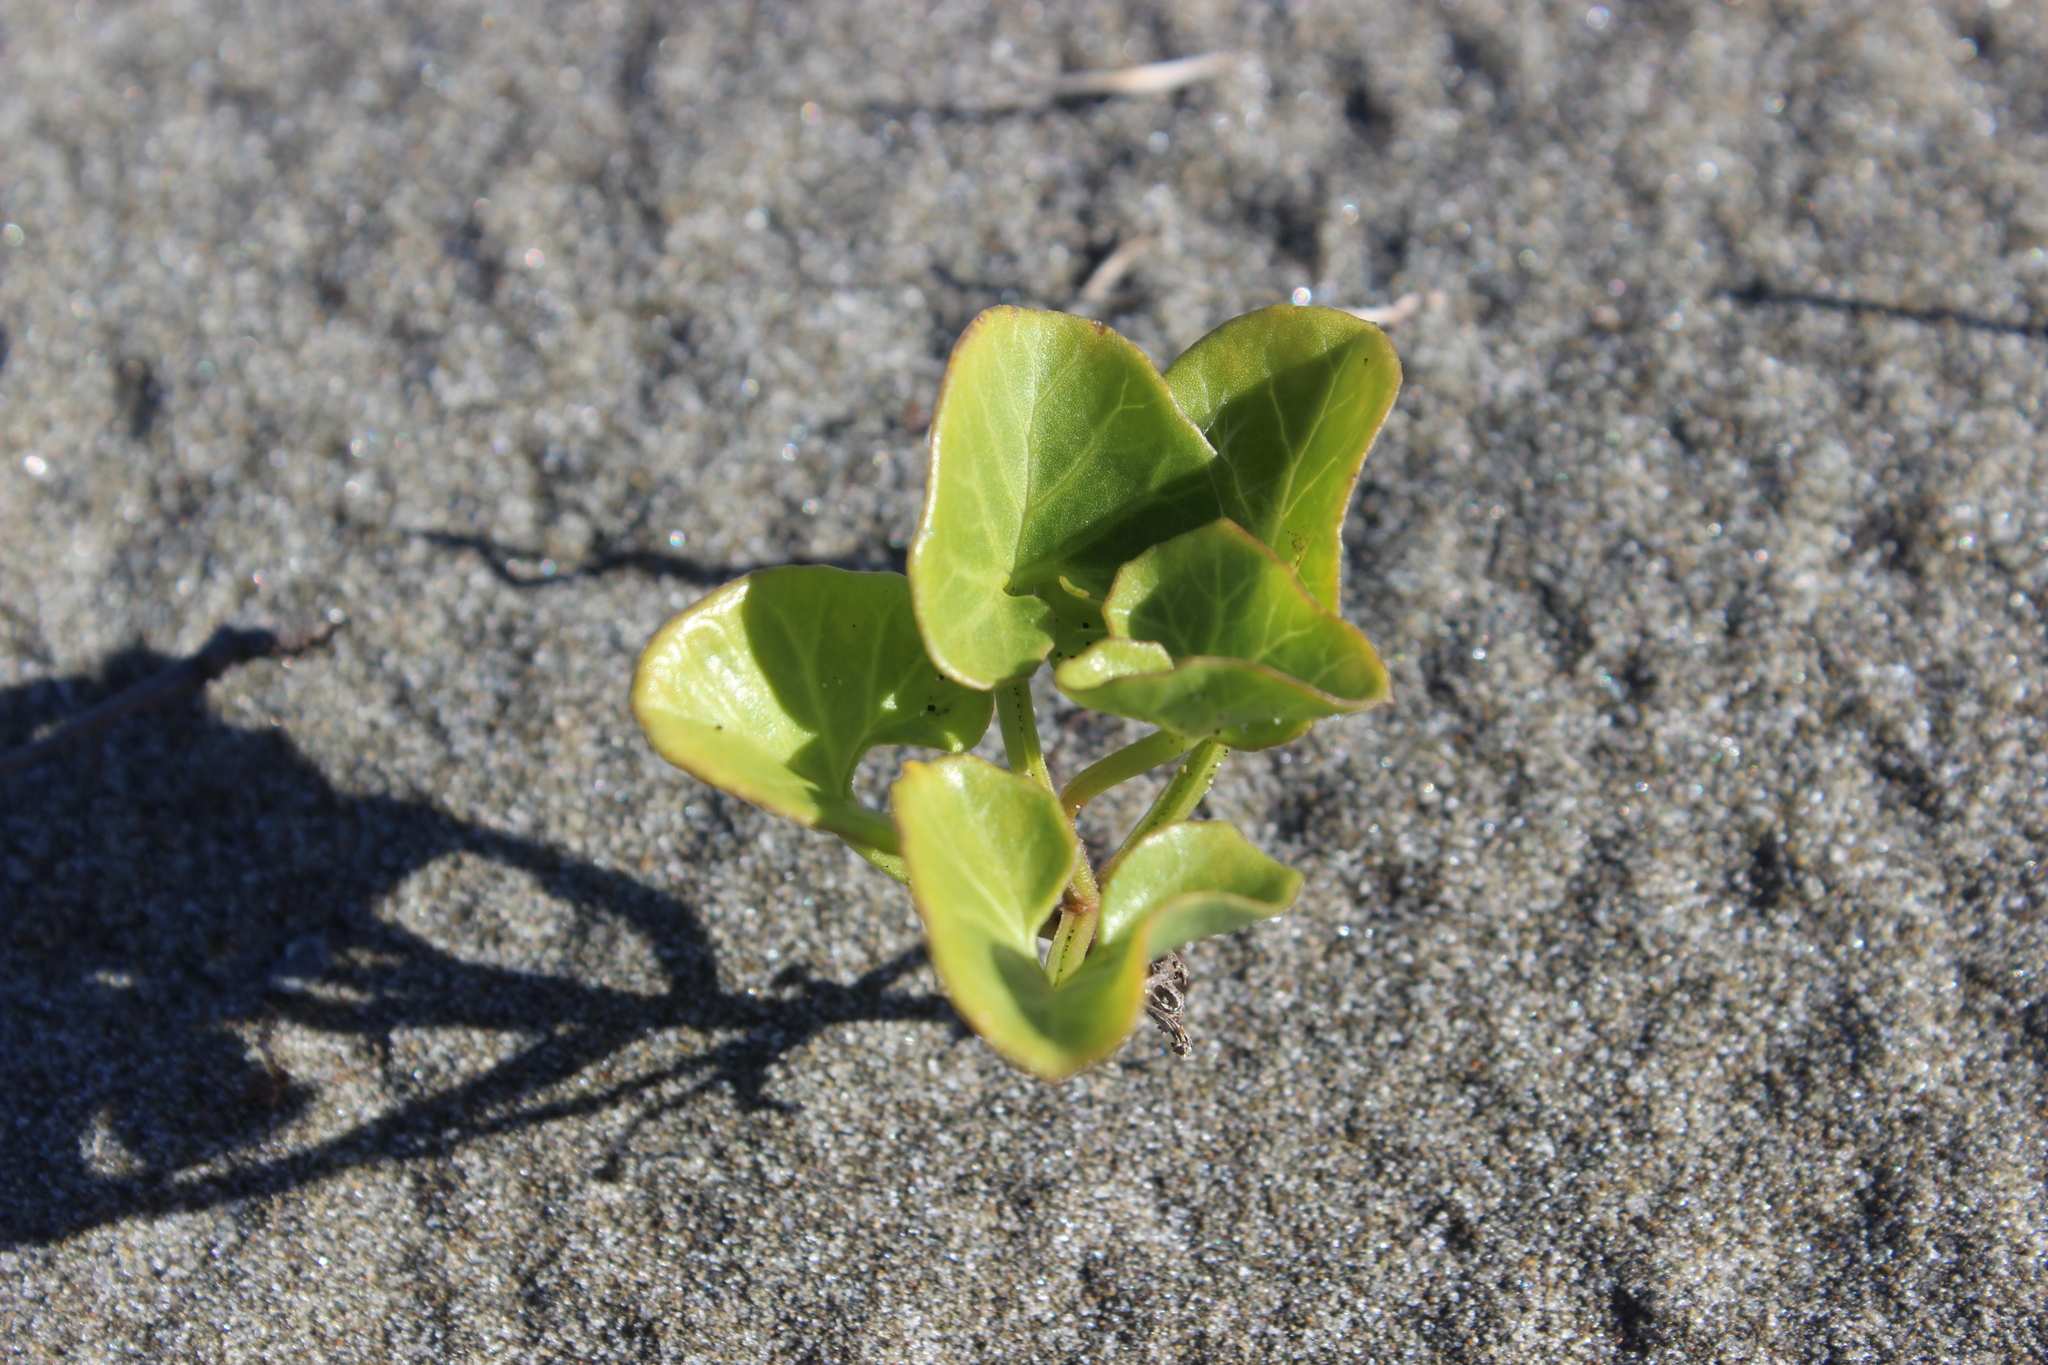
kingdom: Plantae
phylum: Tracheophyta
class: Magnoliopsida
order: Solanales
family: Convolvulaceae
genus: Calystegia
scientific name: Calystegia soldanella
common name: Sea bindweed
